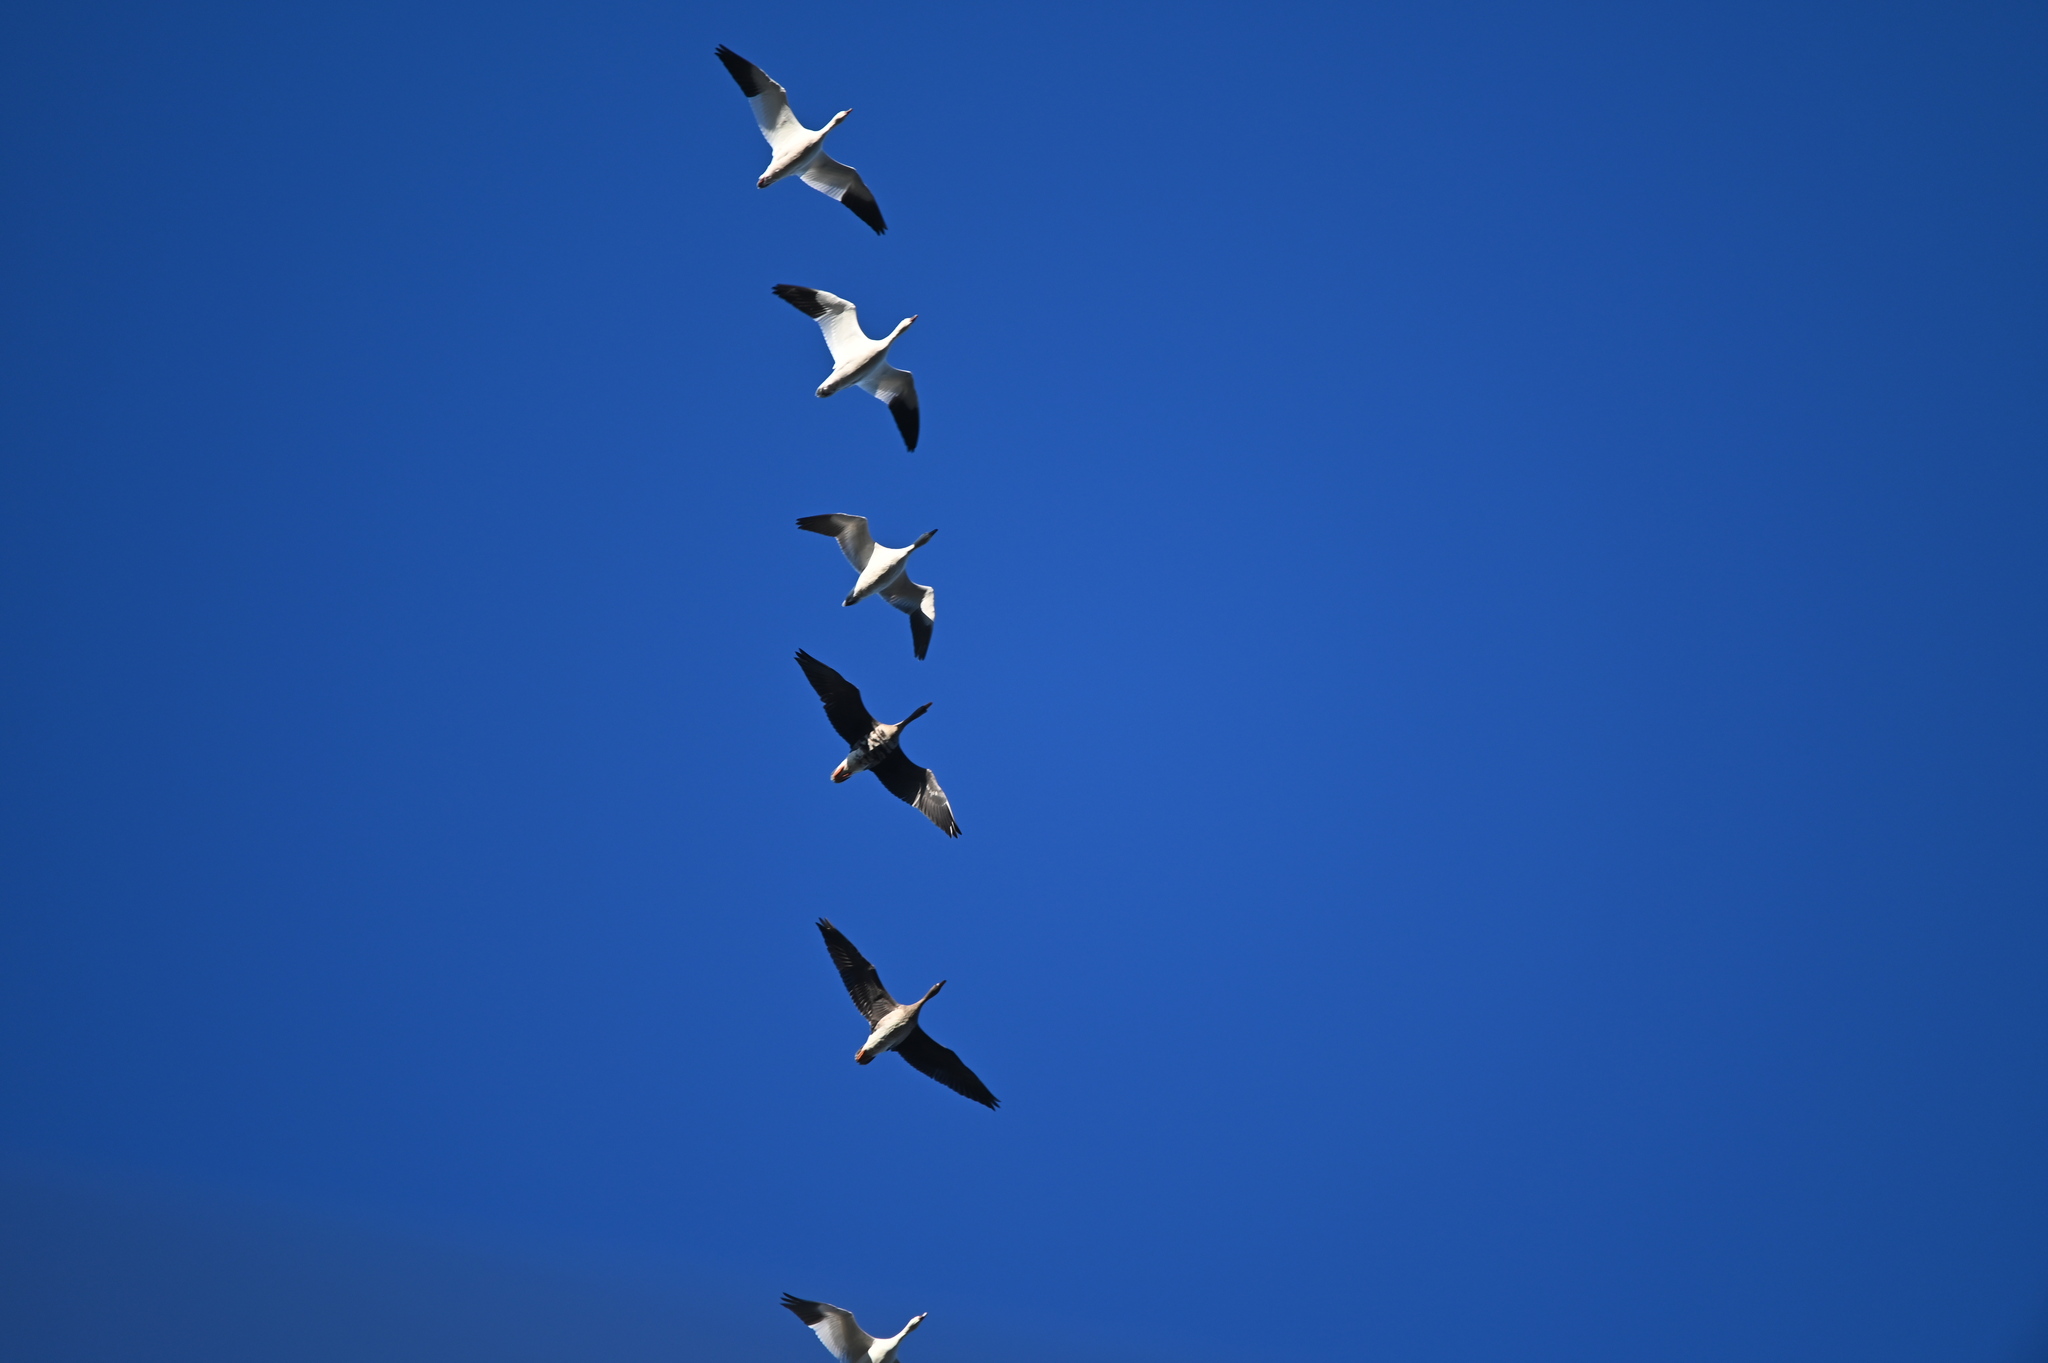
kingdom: Animalia
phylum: Chordata
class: Aves
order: Anseriformes
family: Anatidae
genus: Anser
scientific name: Anser albifrons
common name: Greater white-fronted goose
